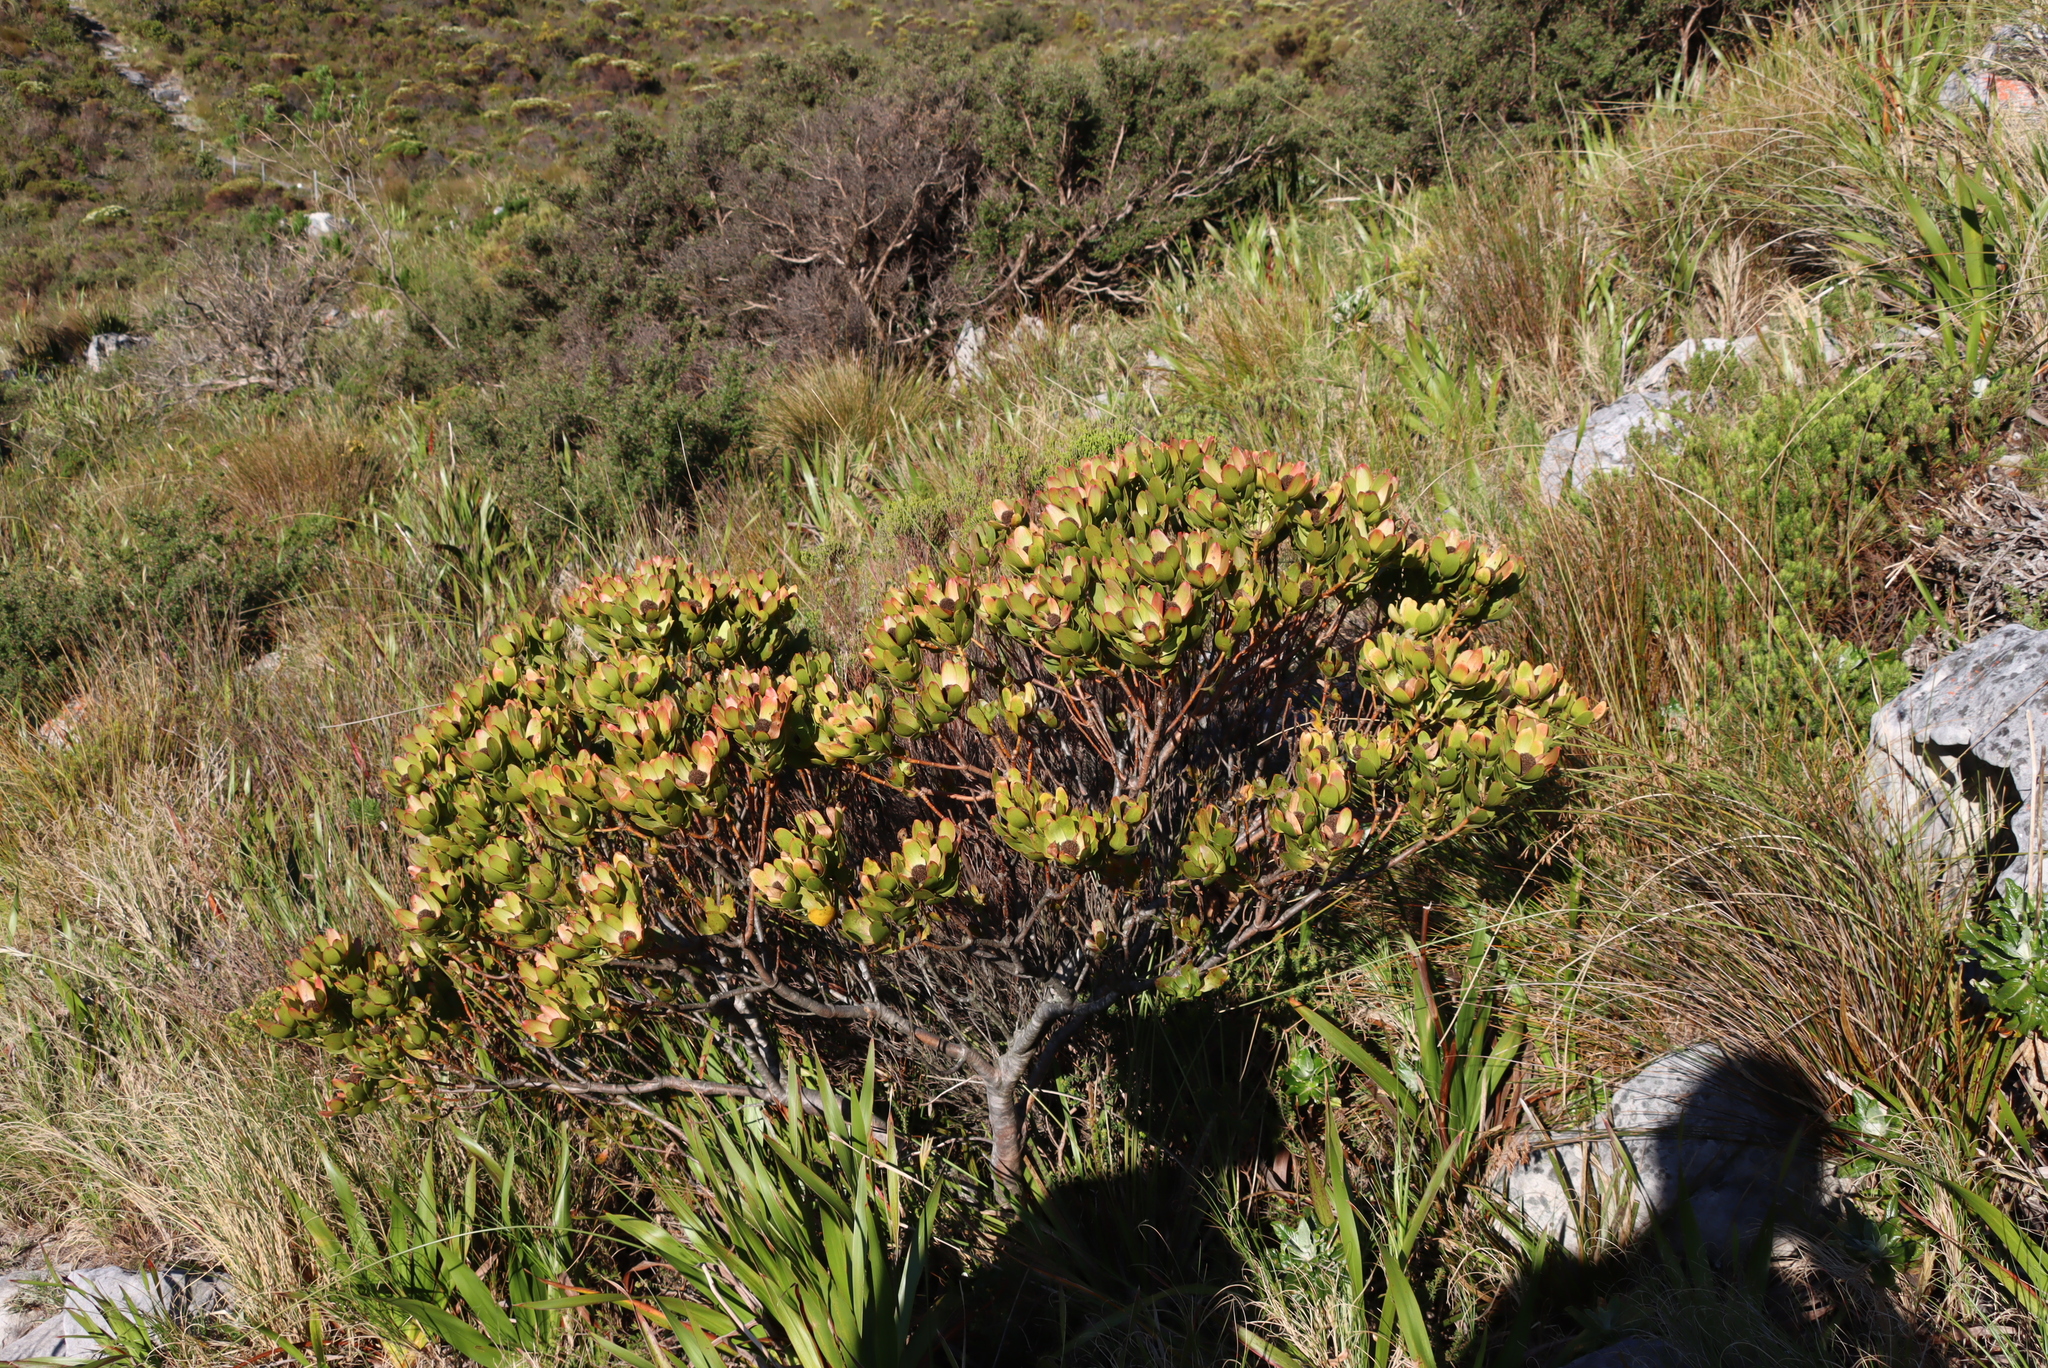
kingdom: Plantae
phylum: Tracheophyta
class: Magnoliopsida
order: Proteales
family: Proteaceae
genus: Leucadendron
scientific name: Leucadendron strobilinum
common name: Mountain rose
